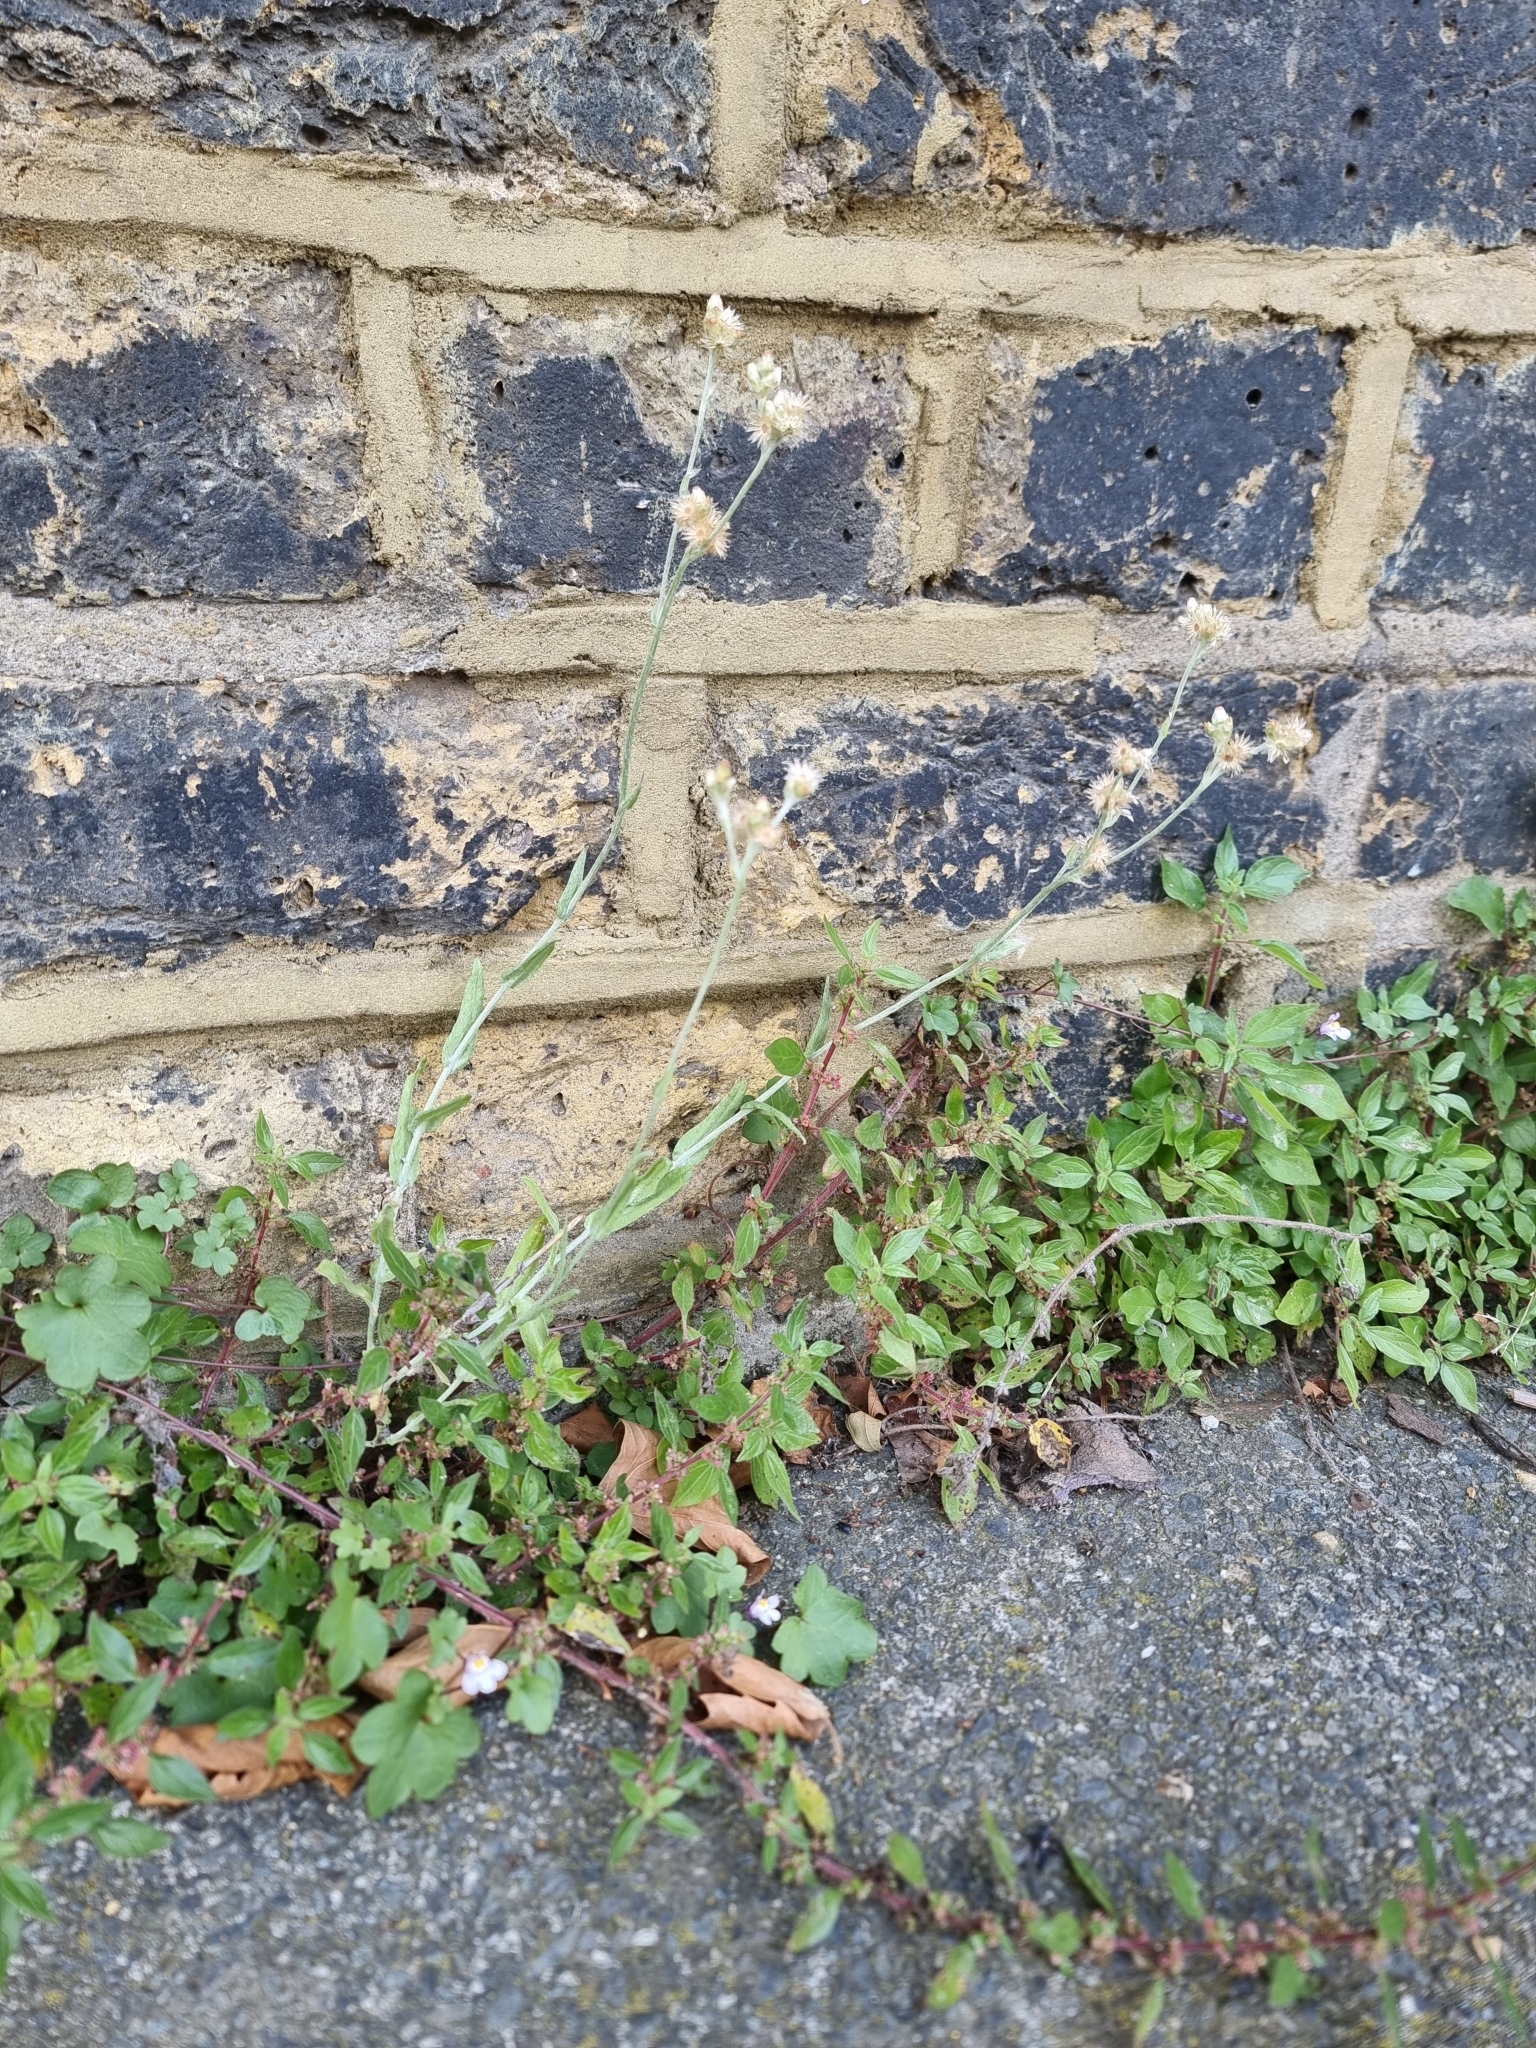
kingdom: Plantae
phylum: Tracheophyta
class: Magnoliopsida
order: Asterales
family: Asteraceae
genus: Helichrysum
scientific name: Helichrysum luteoalbum
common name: Daisy
